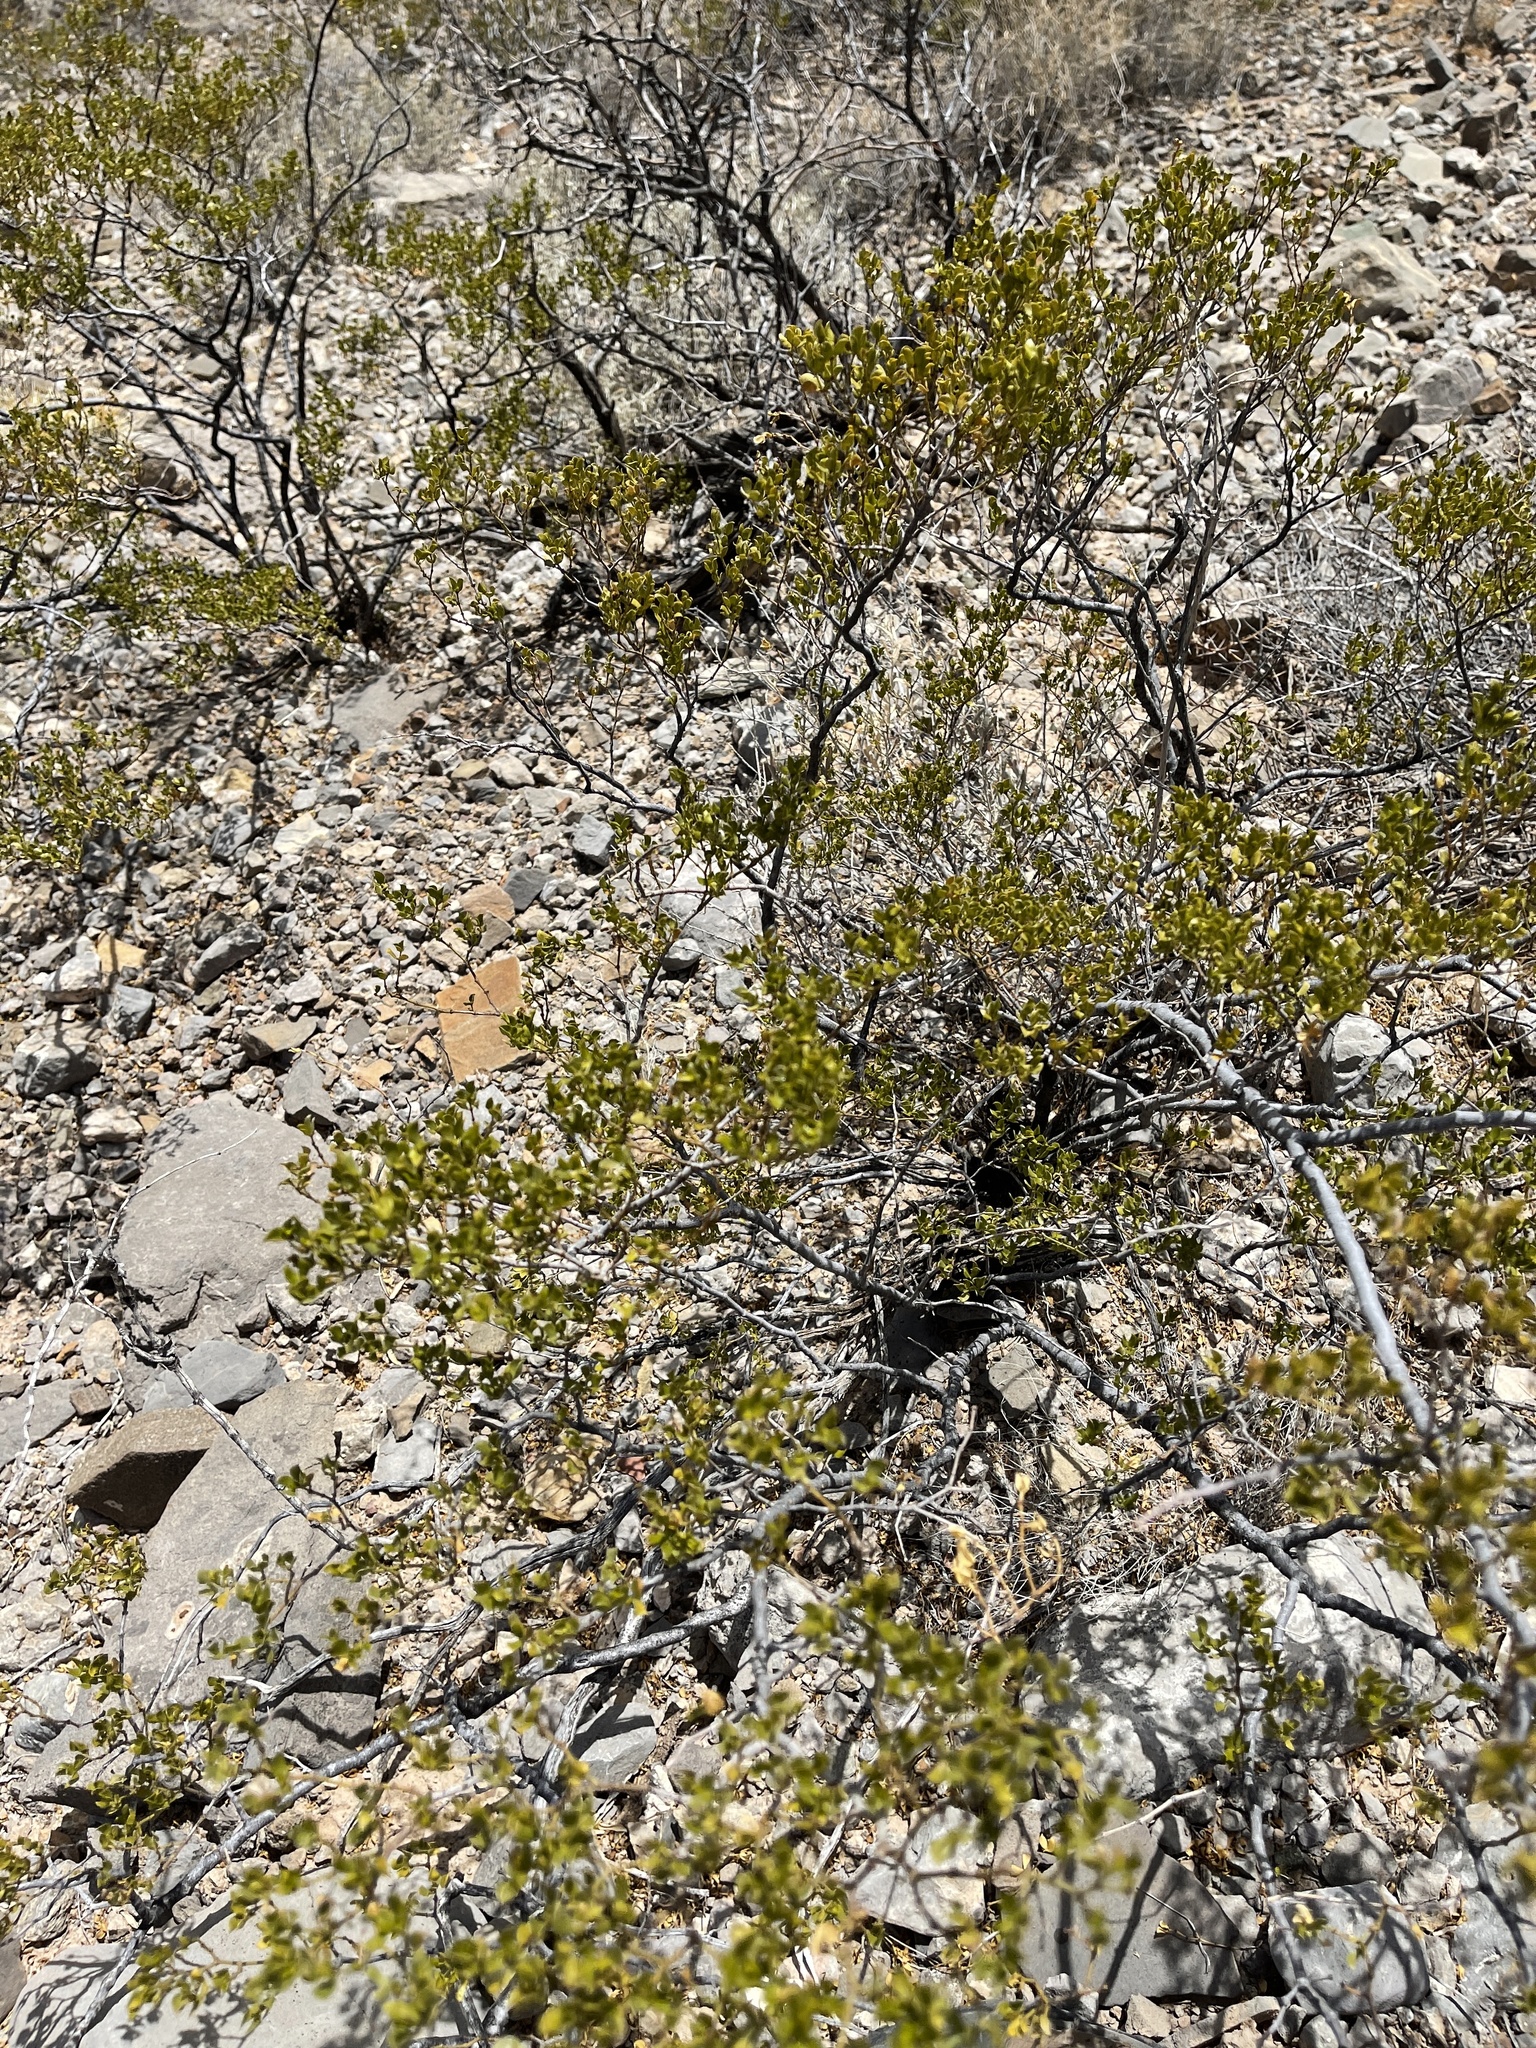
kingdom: Plantae
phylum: Tracheophyta
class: Magnoliopsida
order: Zygophyllales
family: Zygophyllaceae
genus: Larrea
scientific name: Larrea tridentata
